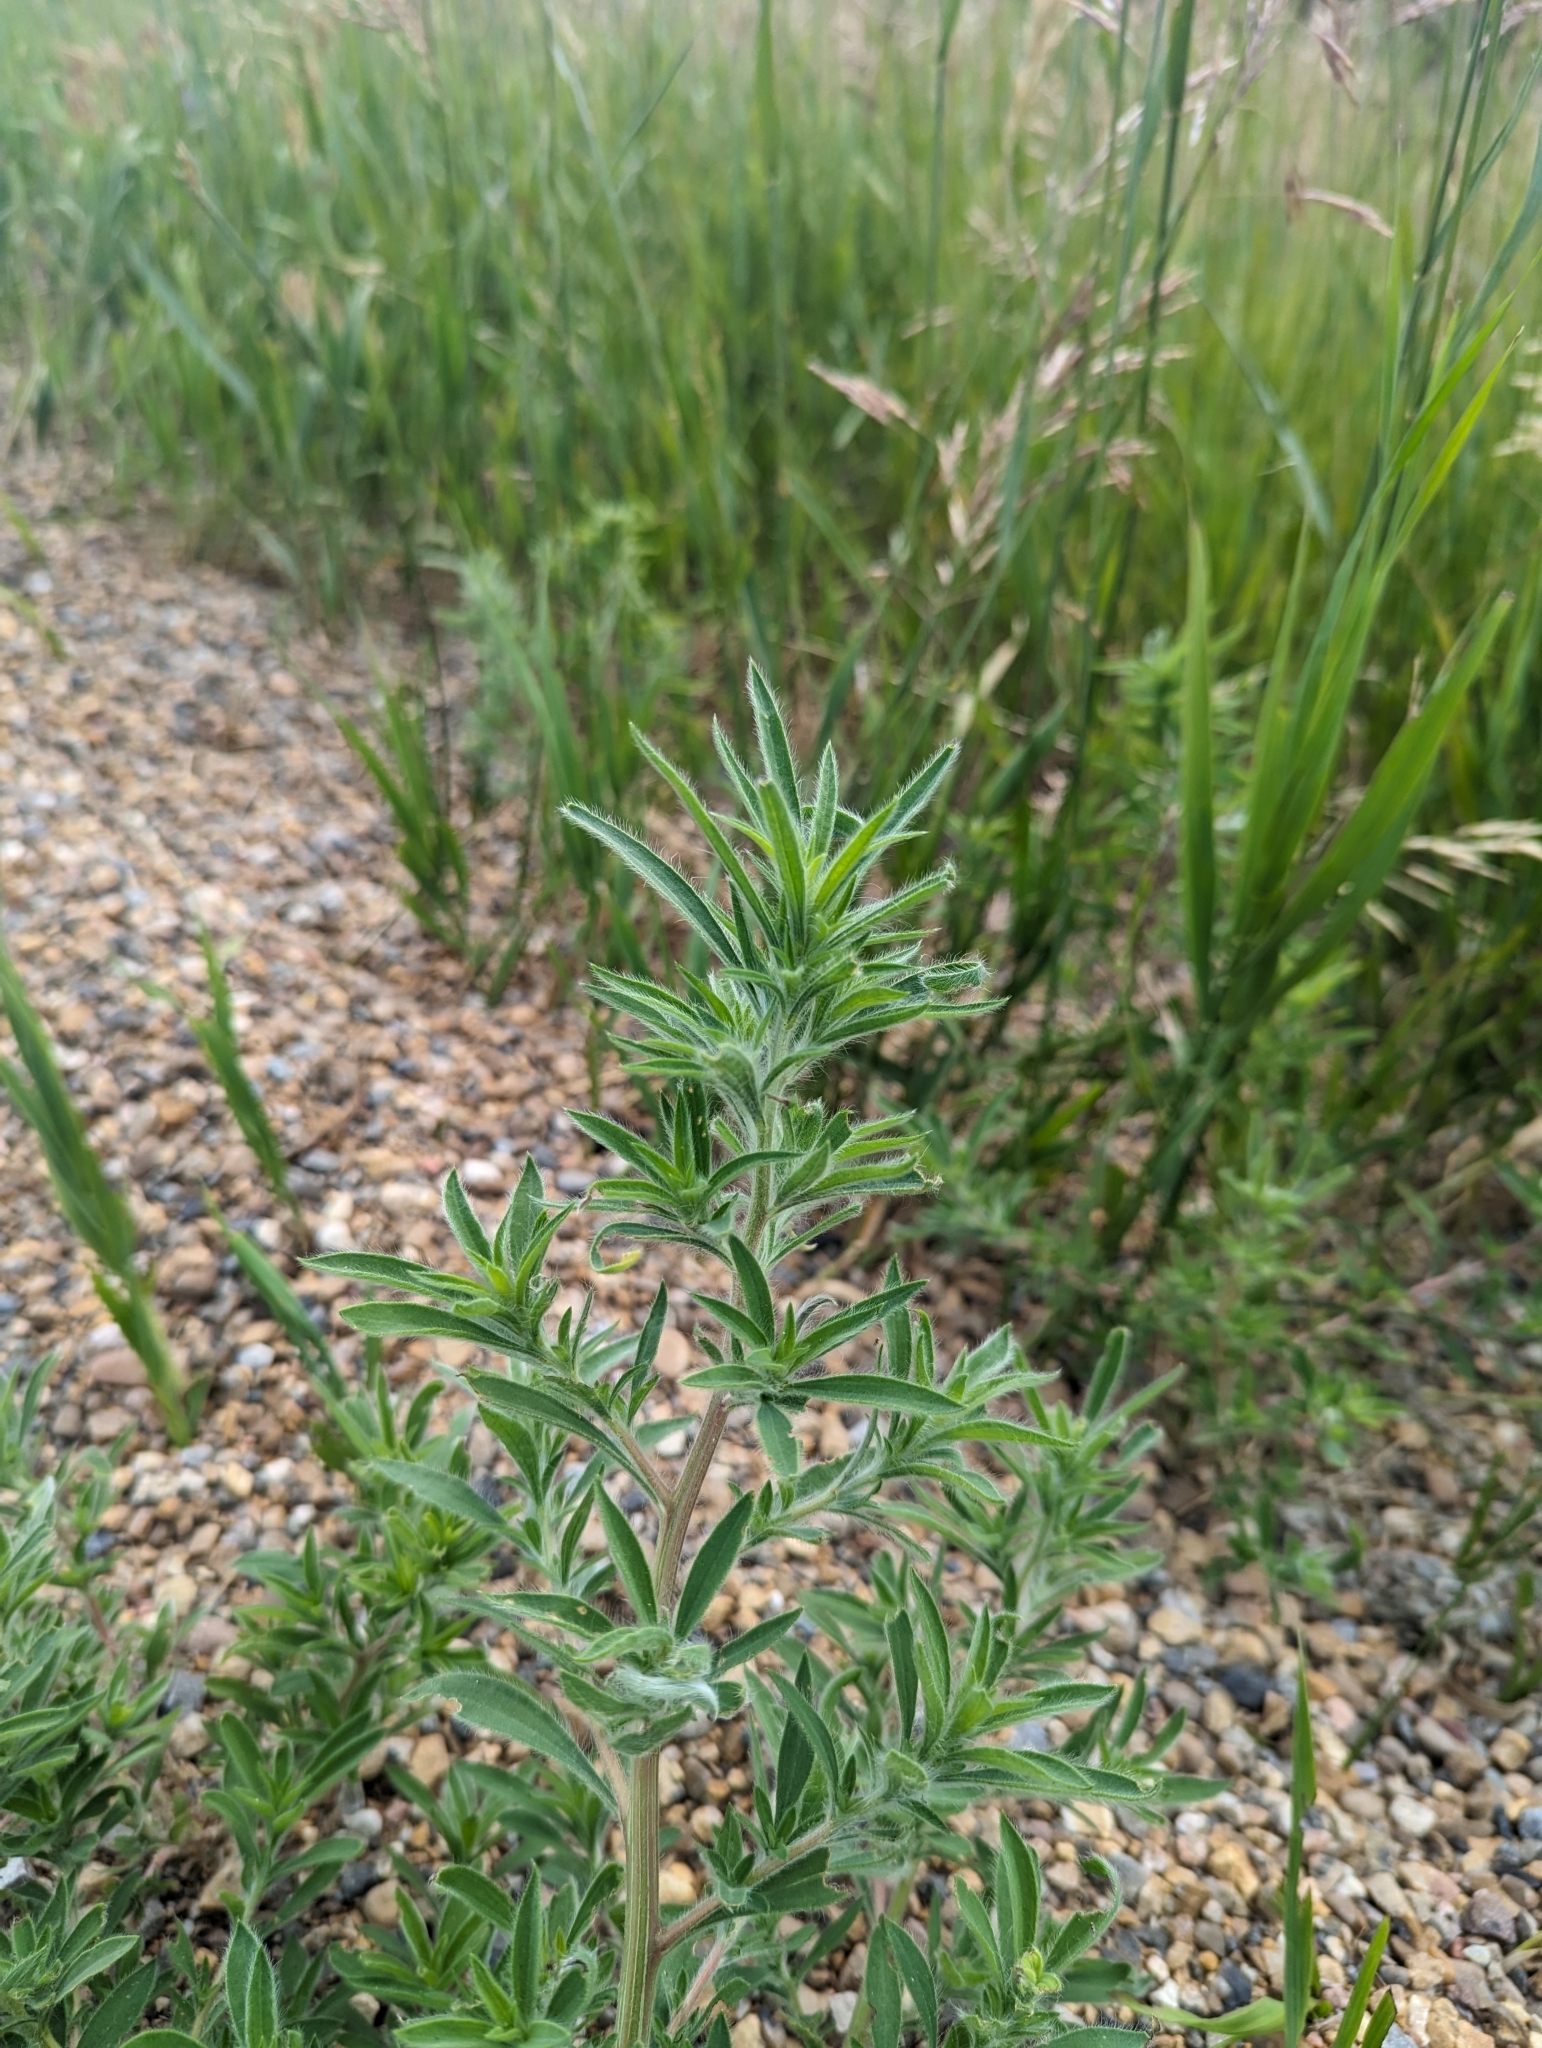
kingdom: Plantae
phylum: Tracheophyta
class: Magnoliopsida
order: Caryophyllales
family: Amaranthaceae
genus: Bassia
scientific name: Bassia scoparia
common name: Belvedere
